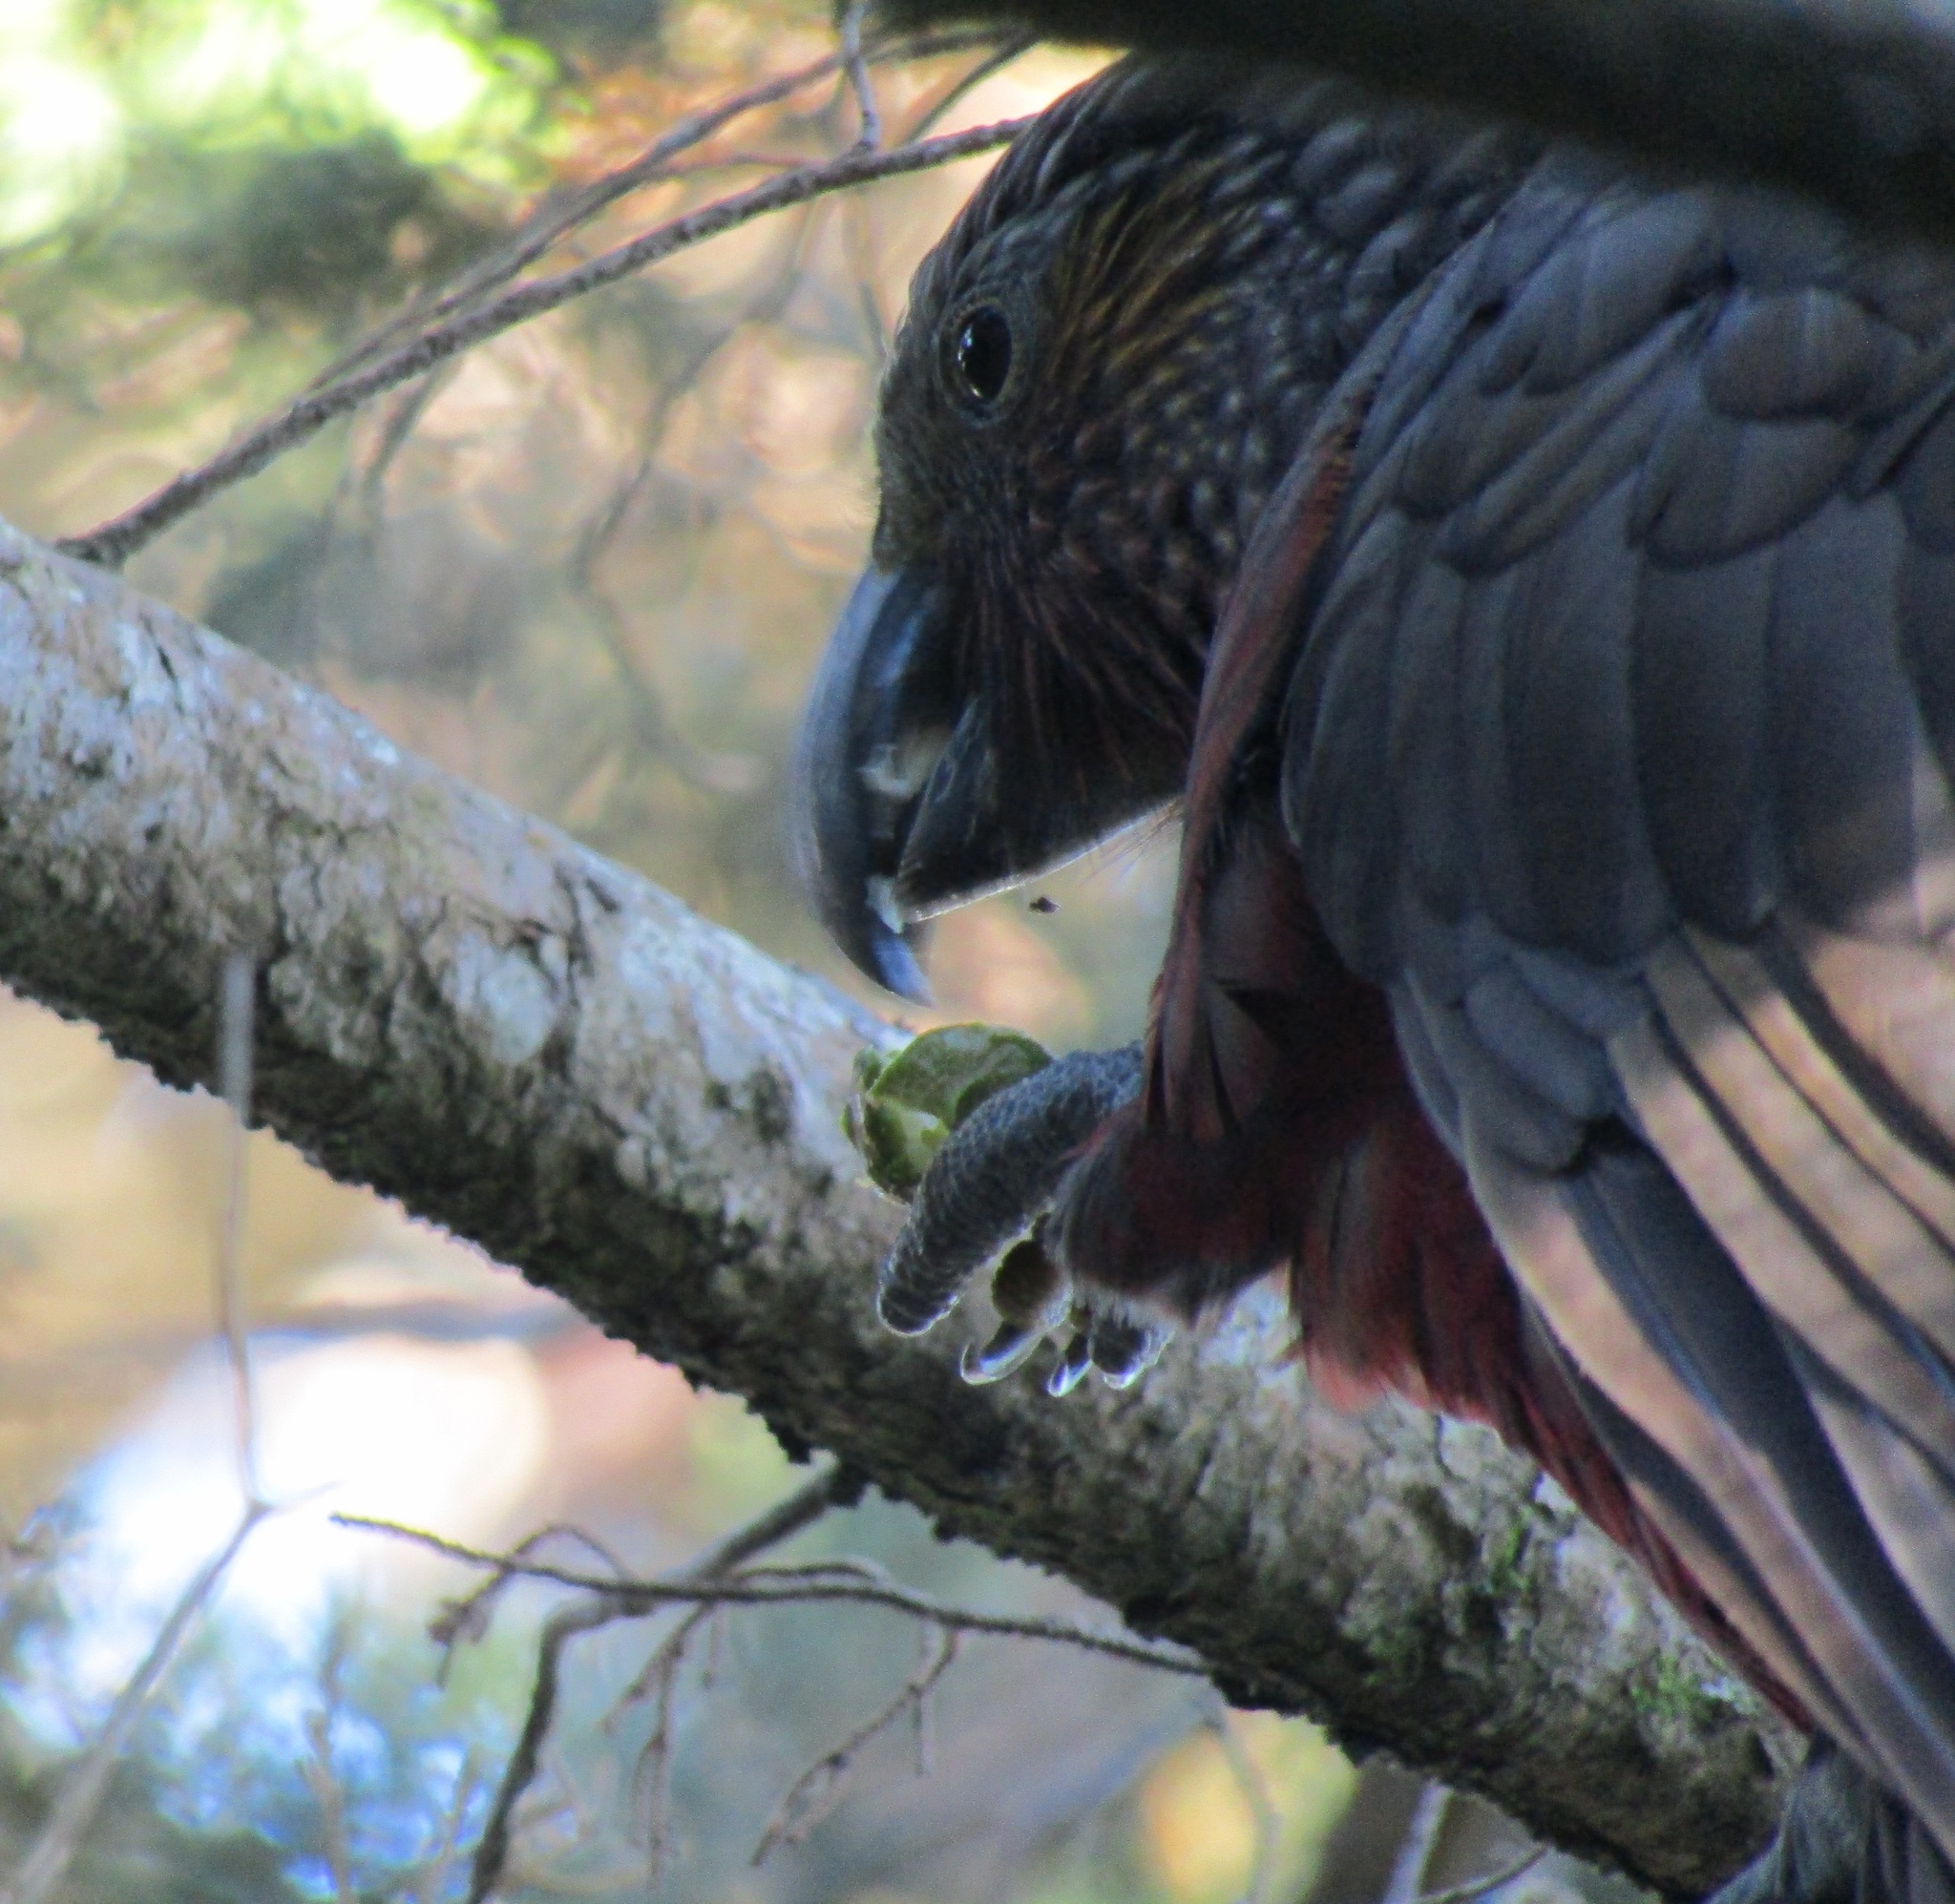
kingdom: Animalia
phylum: Chordata
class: Aves
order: Psittaciformes
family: Psittacidae
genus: Nestor
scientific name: Nestor meridionalis
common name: New zealand kaka
